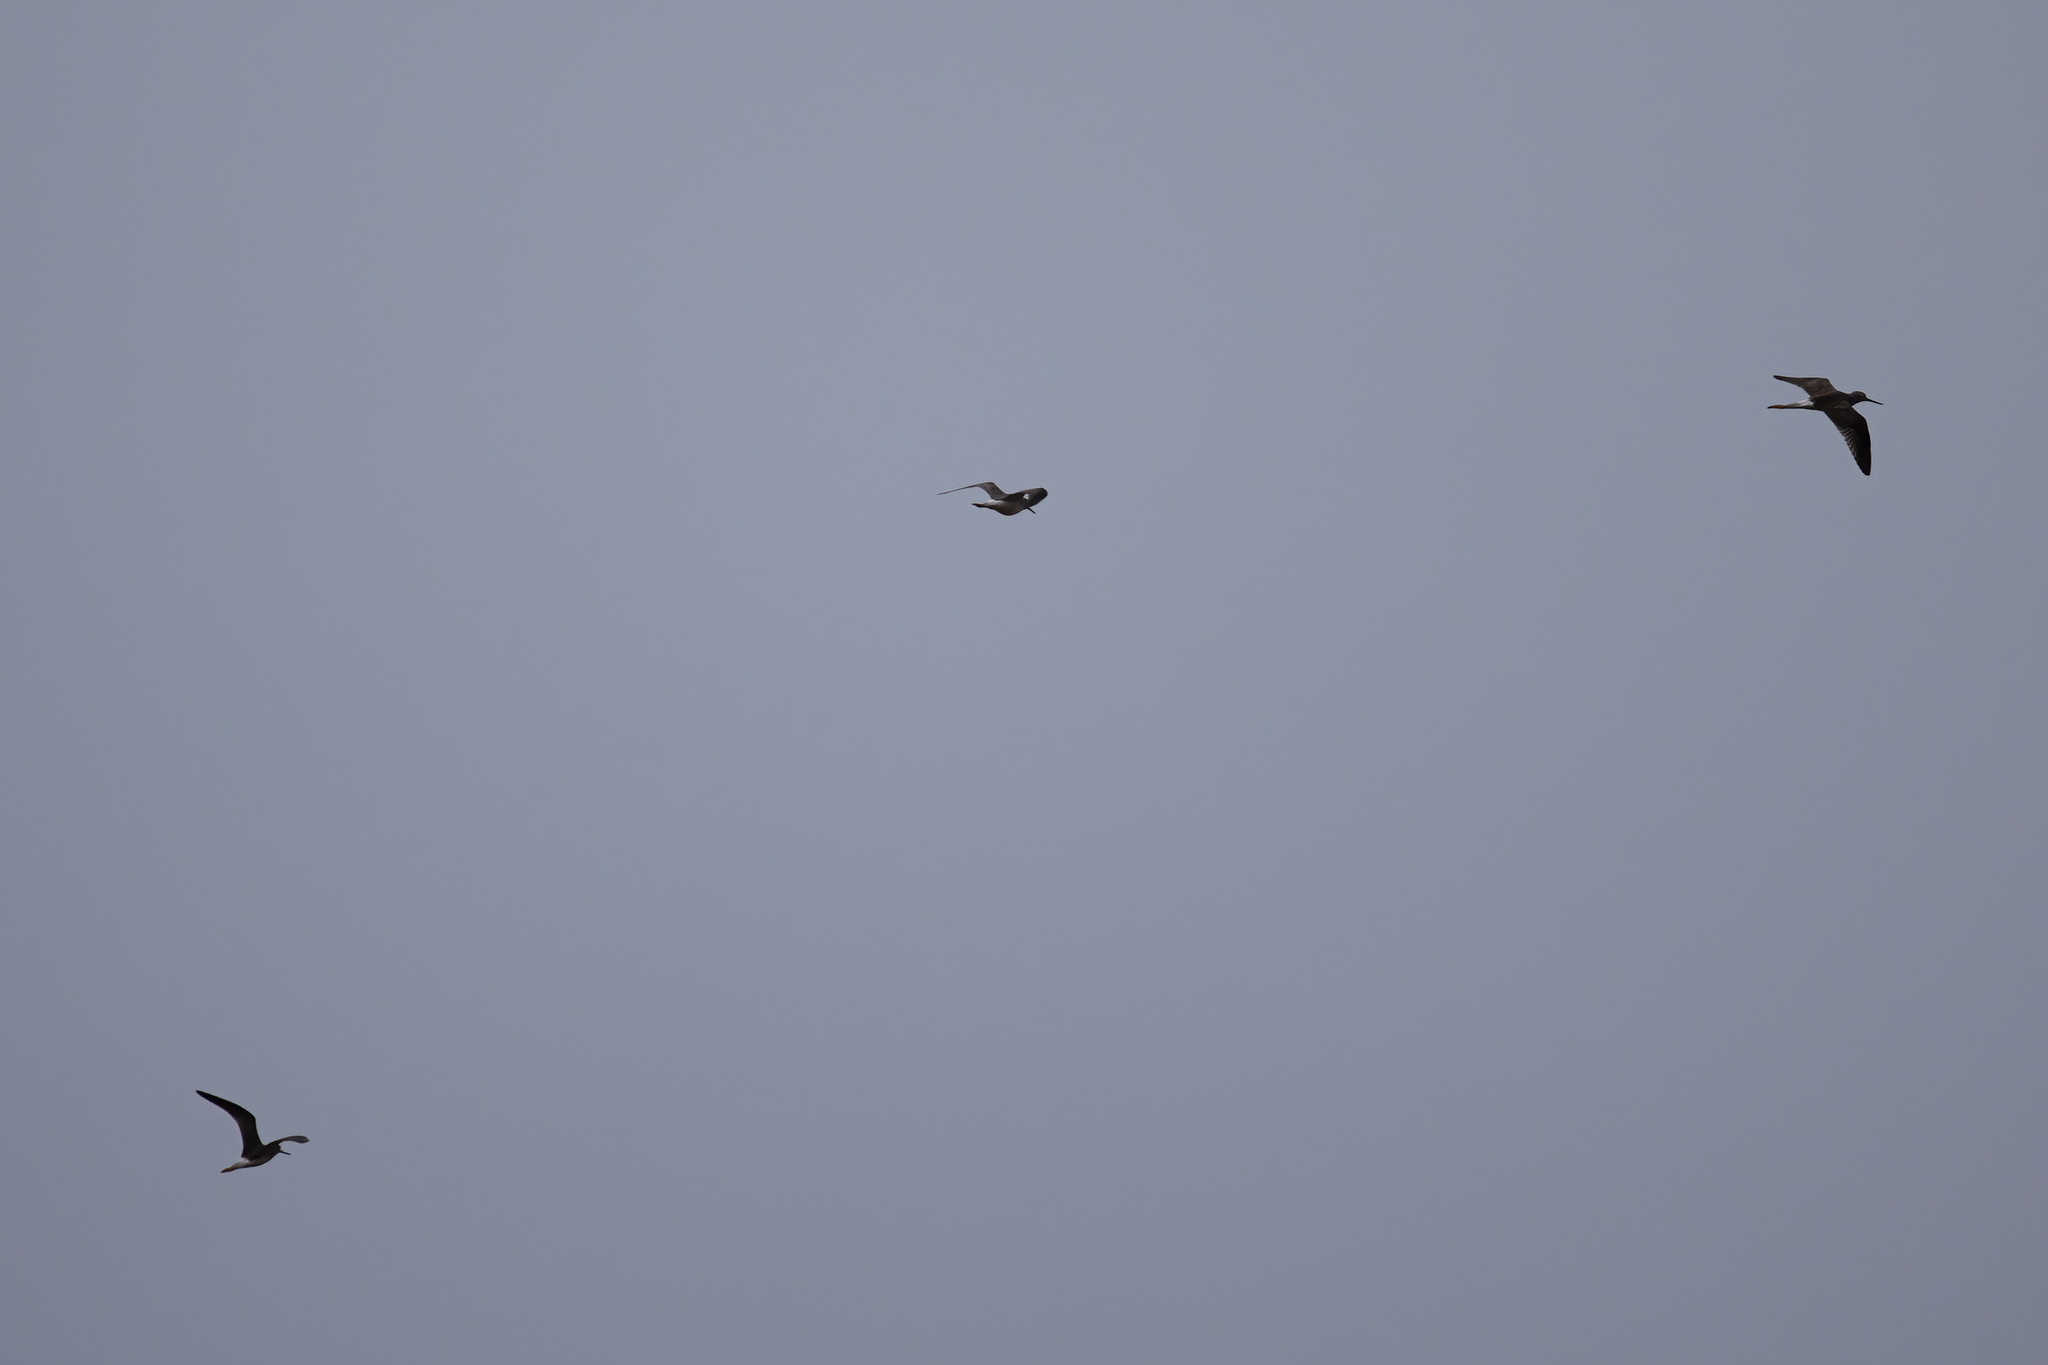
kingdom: Animalia
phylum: Chordata
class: Aves
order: Charadriiformes
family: Scolopacidae
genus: Tringa
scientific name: Tringa melanoleuca
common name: Greater yellowlegs
